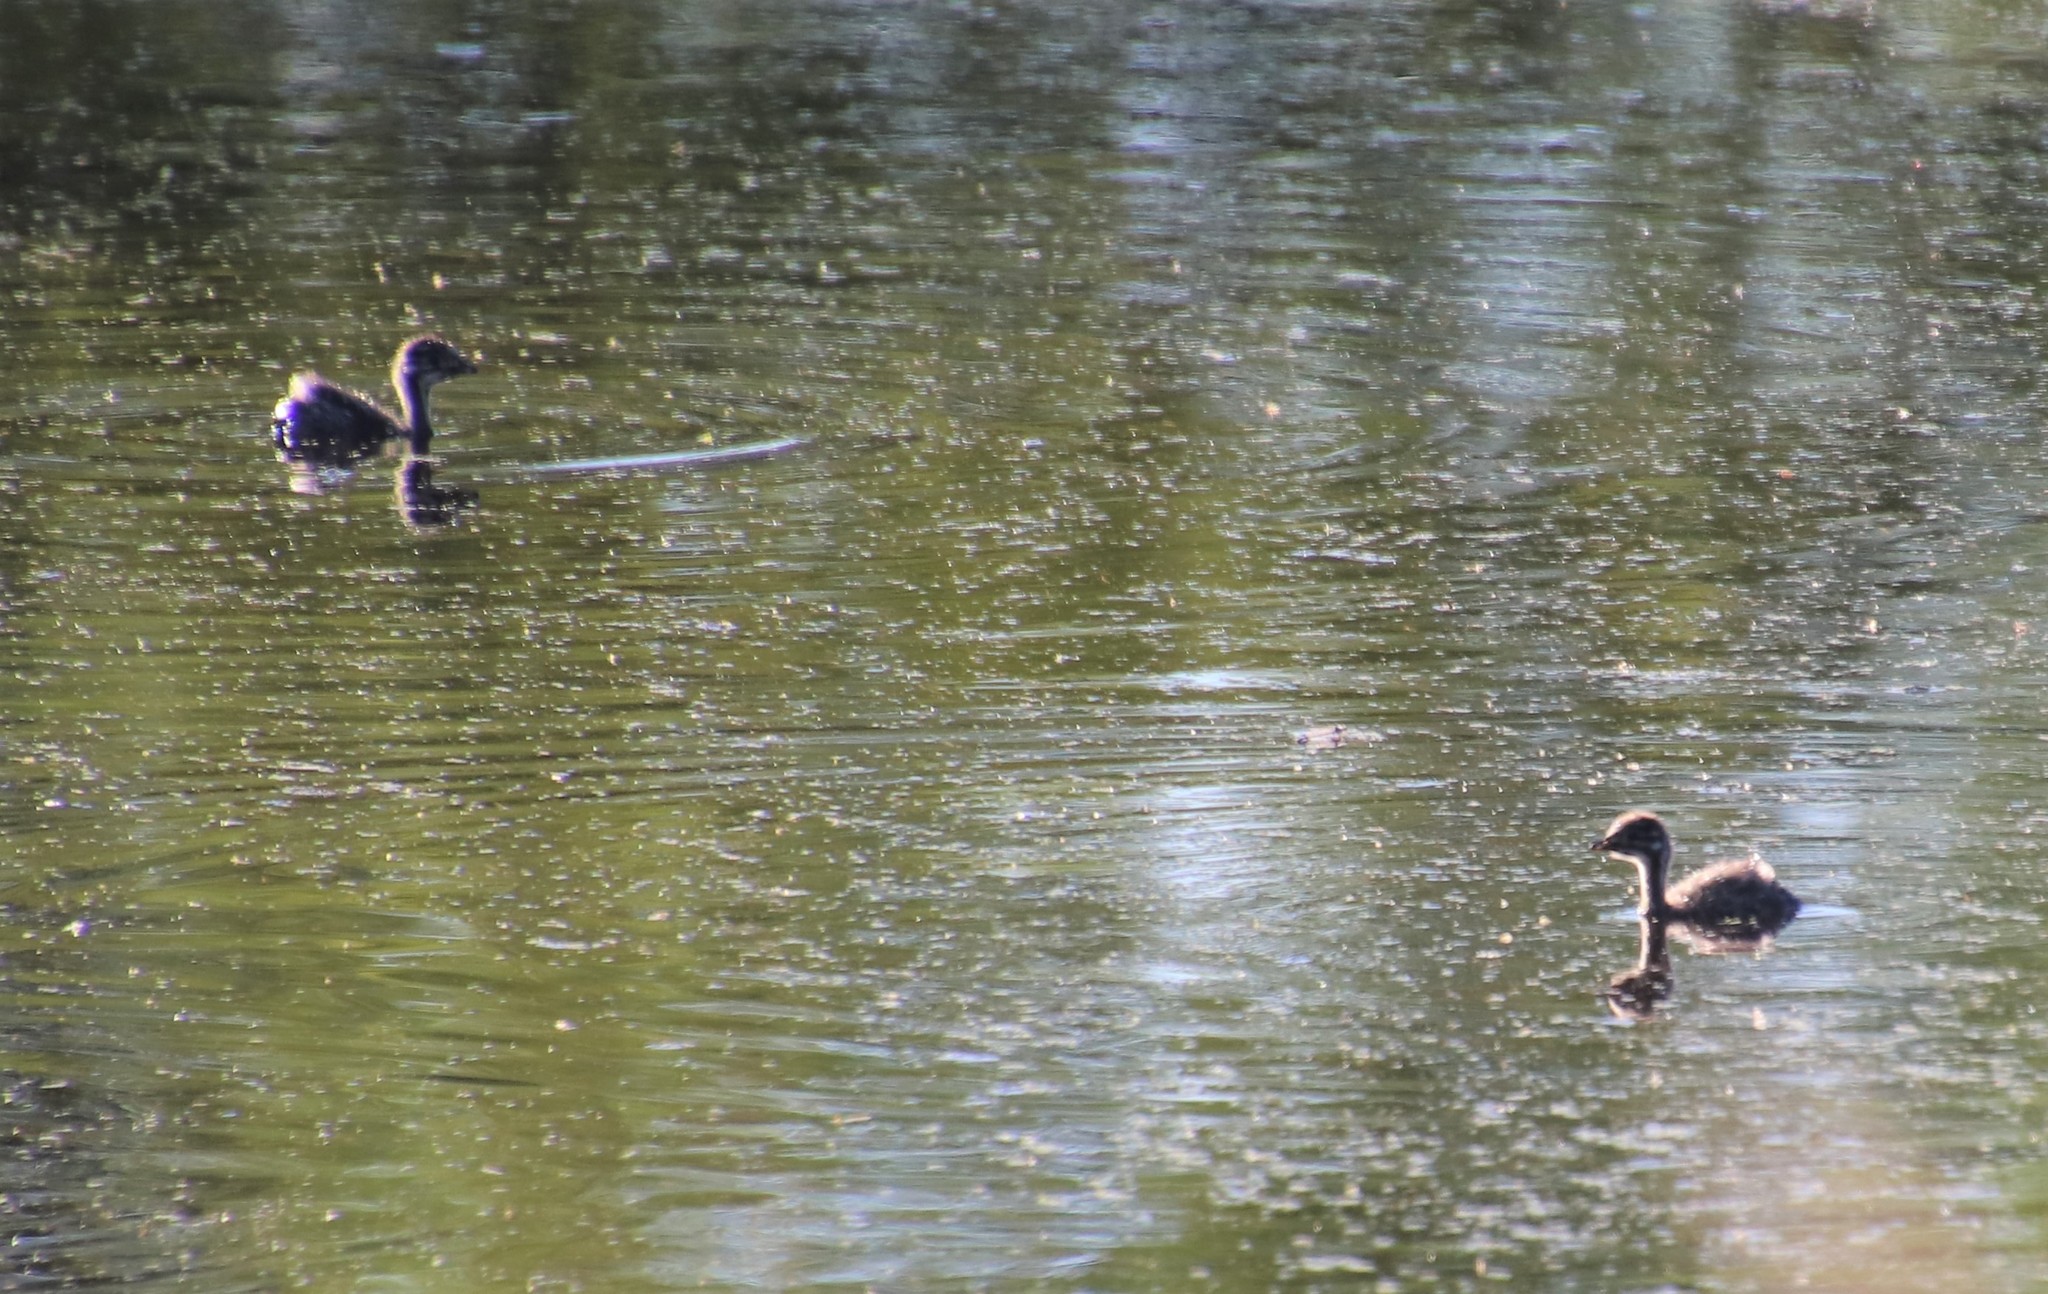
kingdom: Animalia
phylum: Chordata
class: Aves
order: Podicipediformes
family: Podicipedidae
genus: Tachybaptus
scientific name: Tachybaptus dominicus
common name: Least grebe
